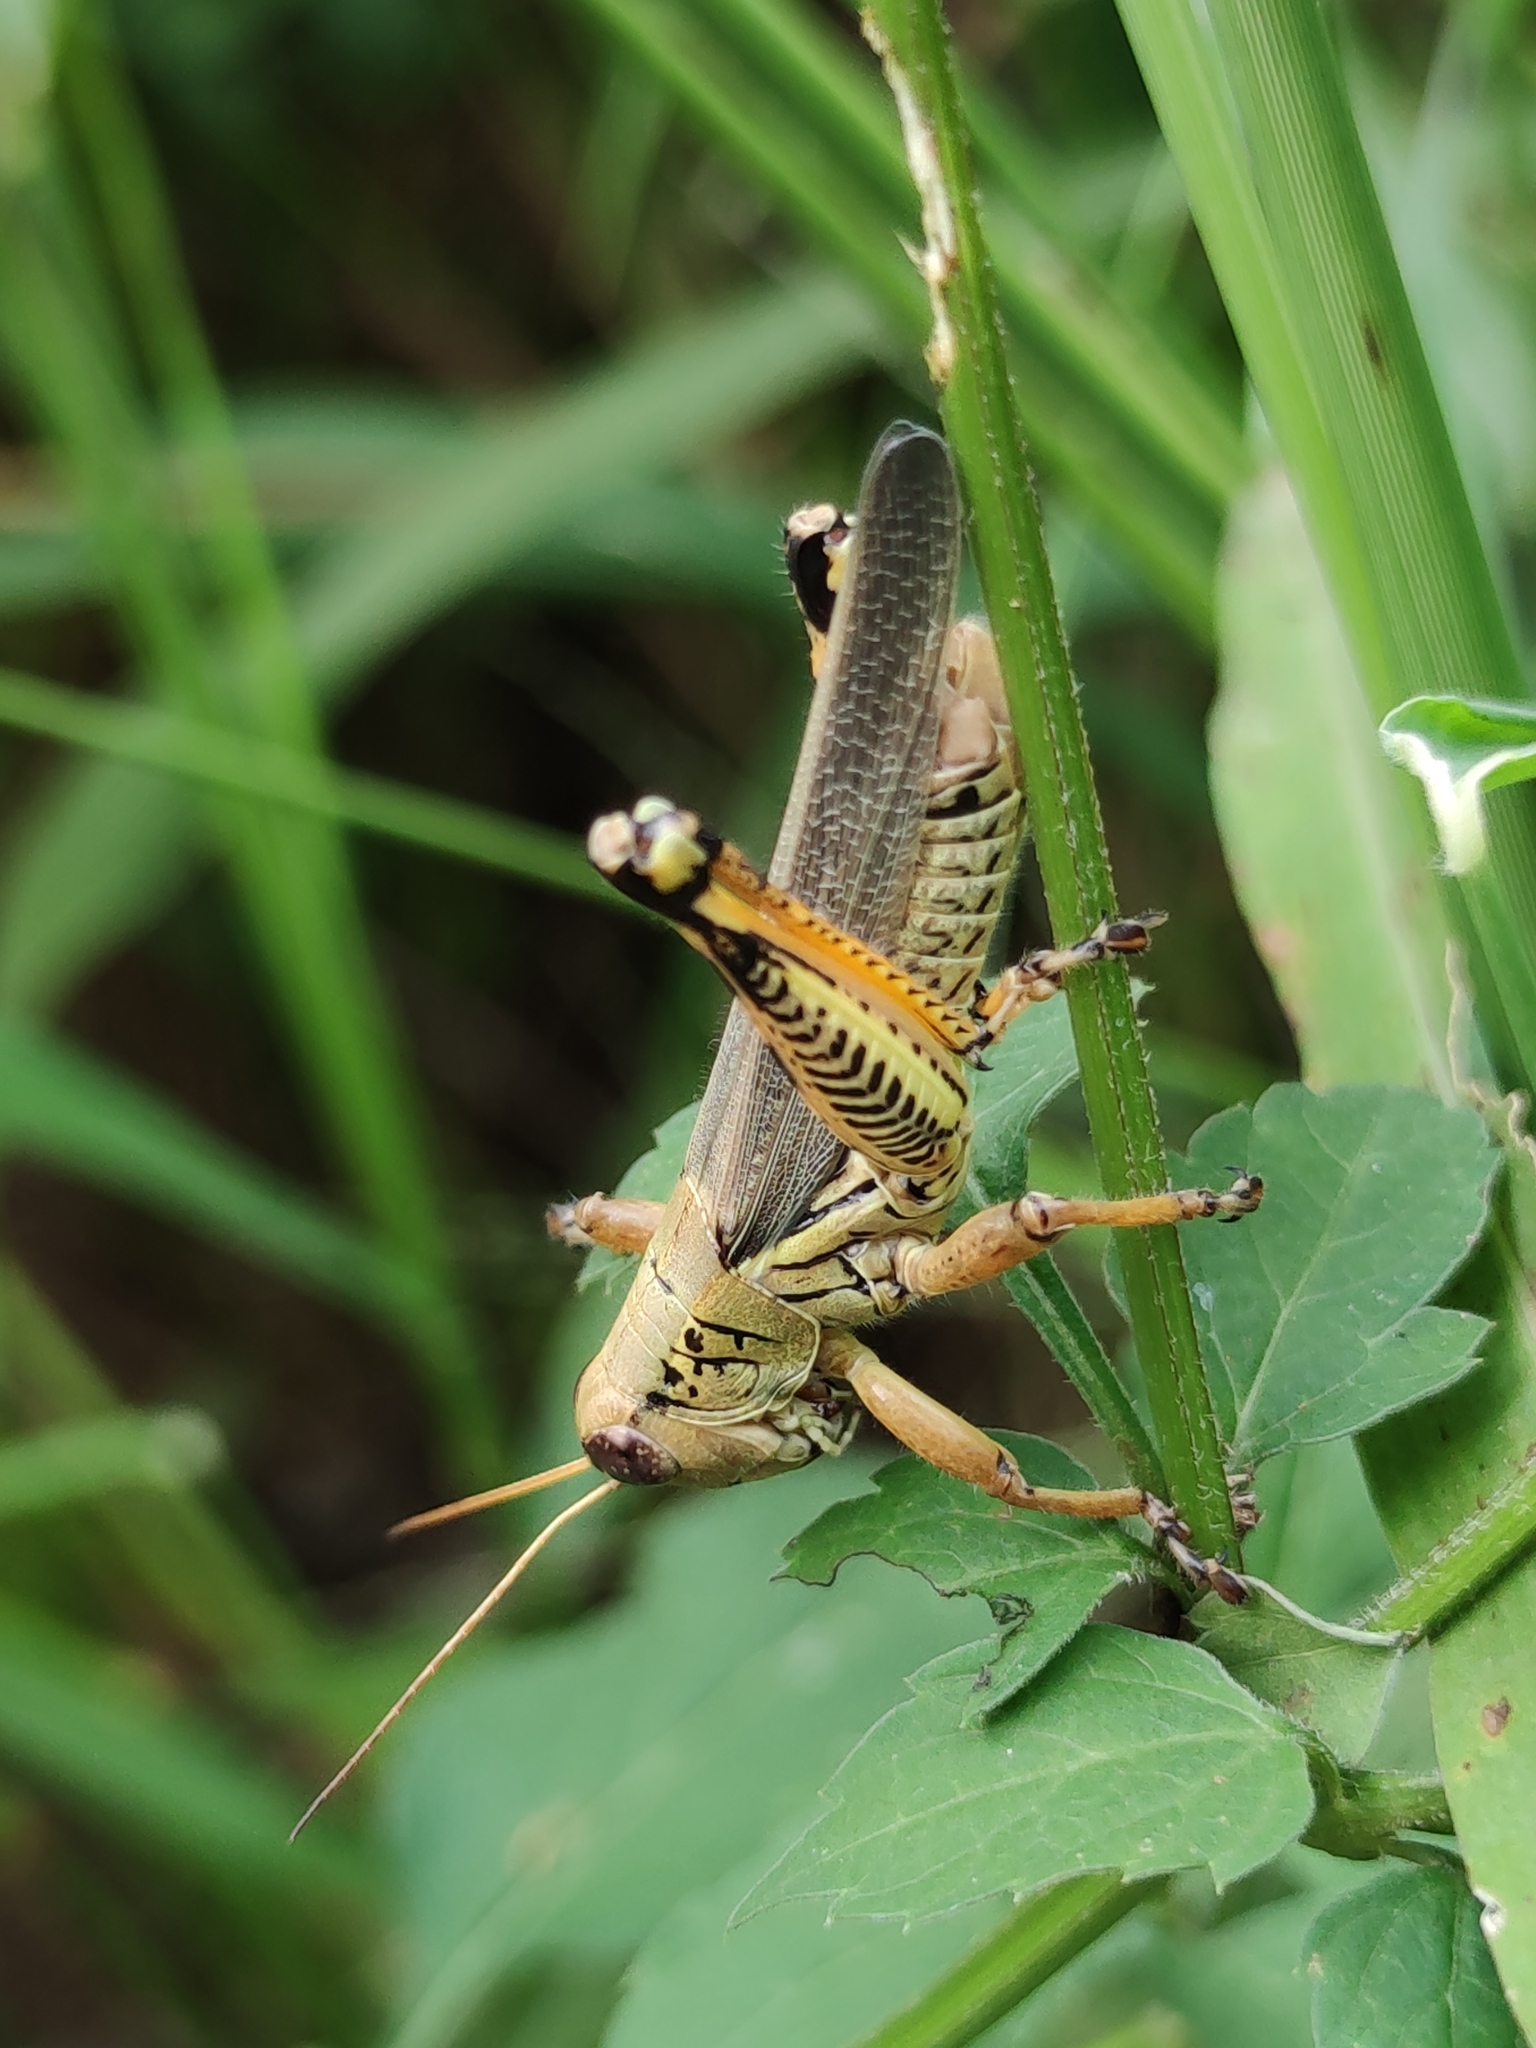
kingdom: Animalia
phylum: Arthropoda
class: Insecta
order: Orthoptera
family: Acrididae
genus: Melanoplus
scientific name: Melanoplus differentialis
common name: Differential grasshopper
